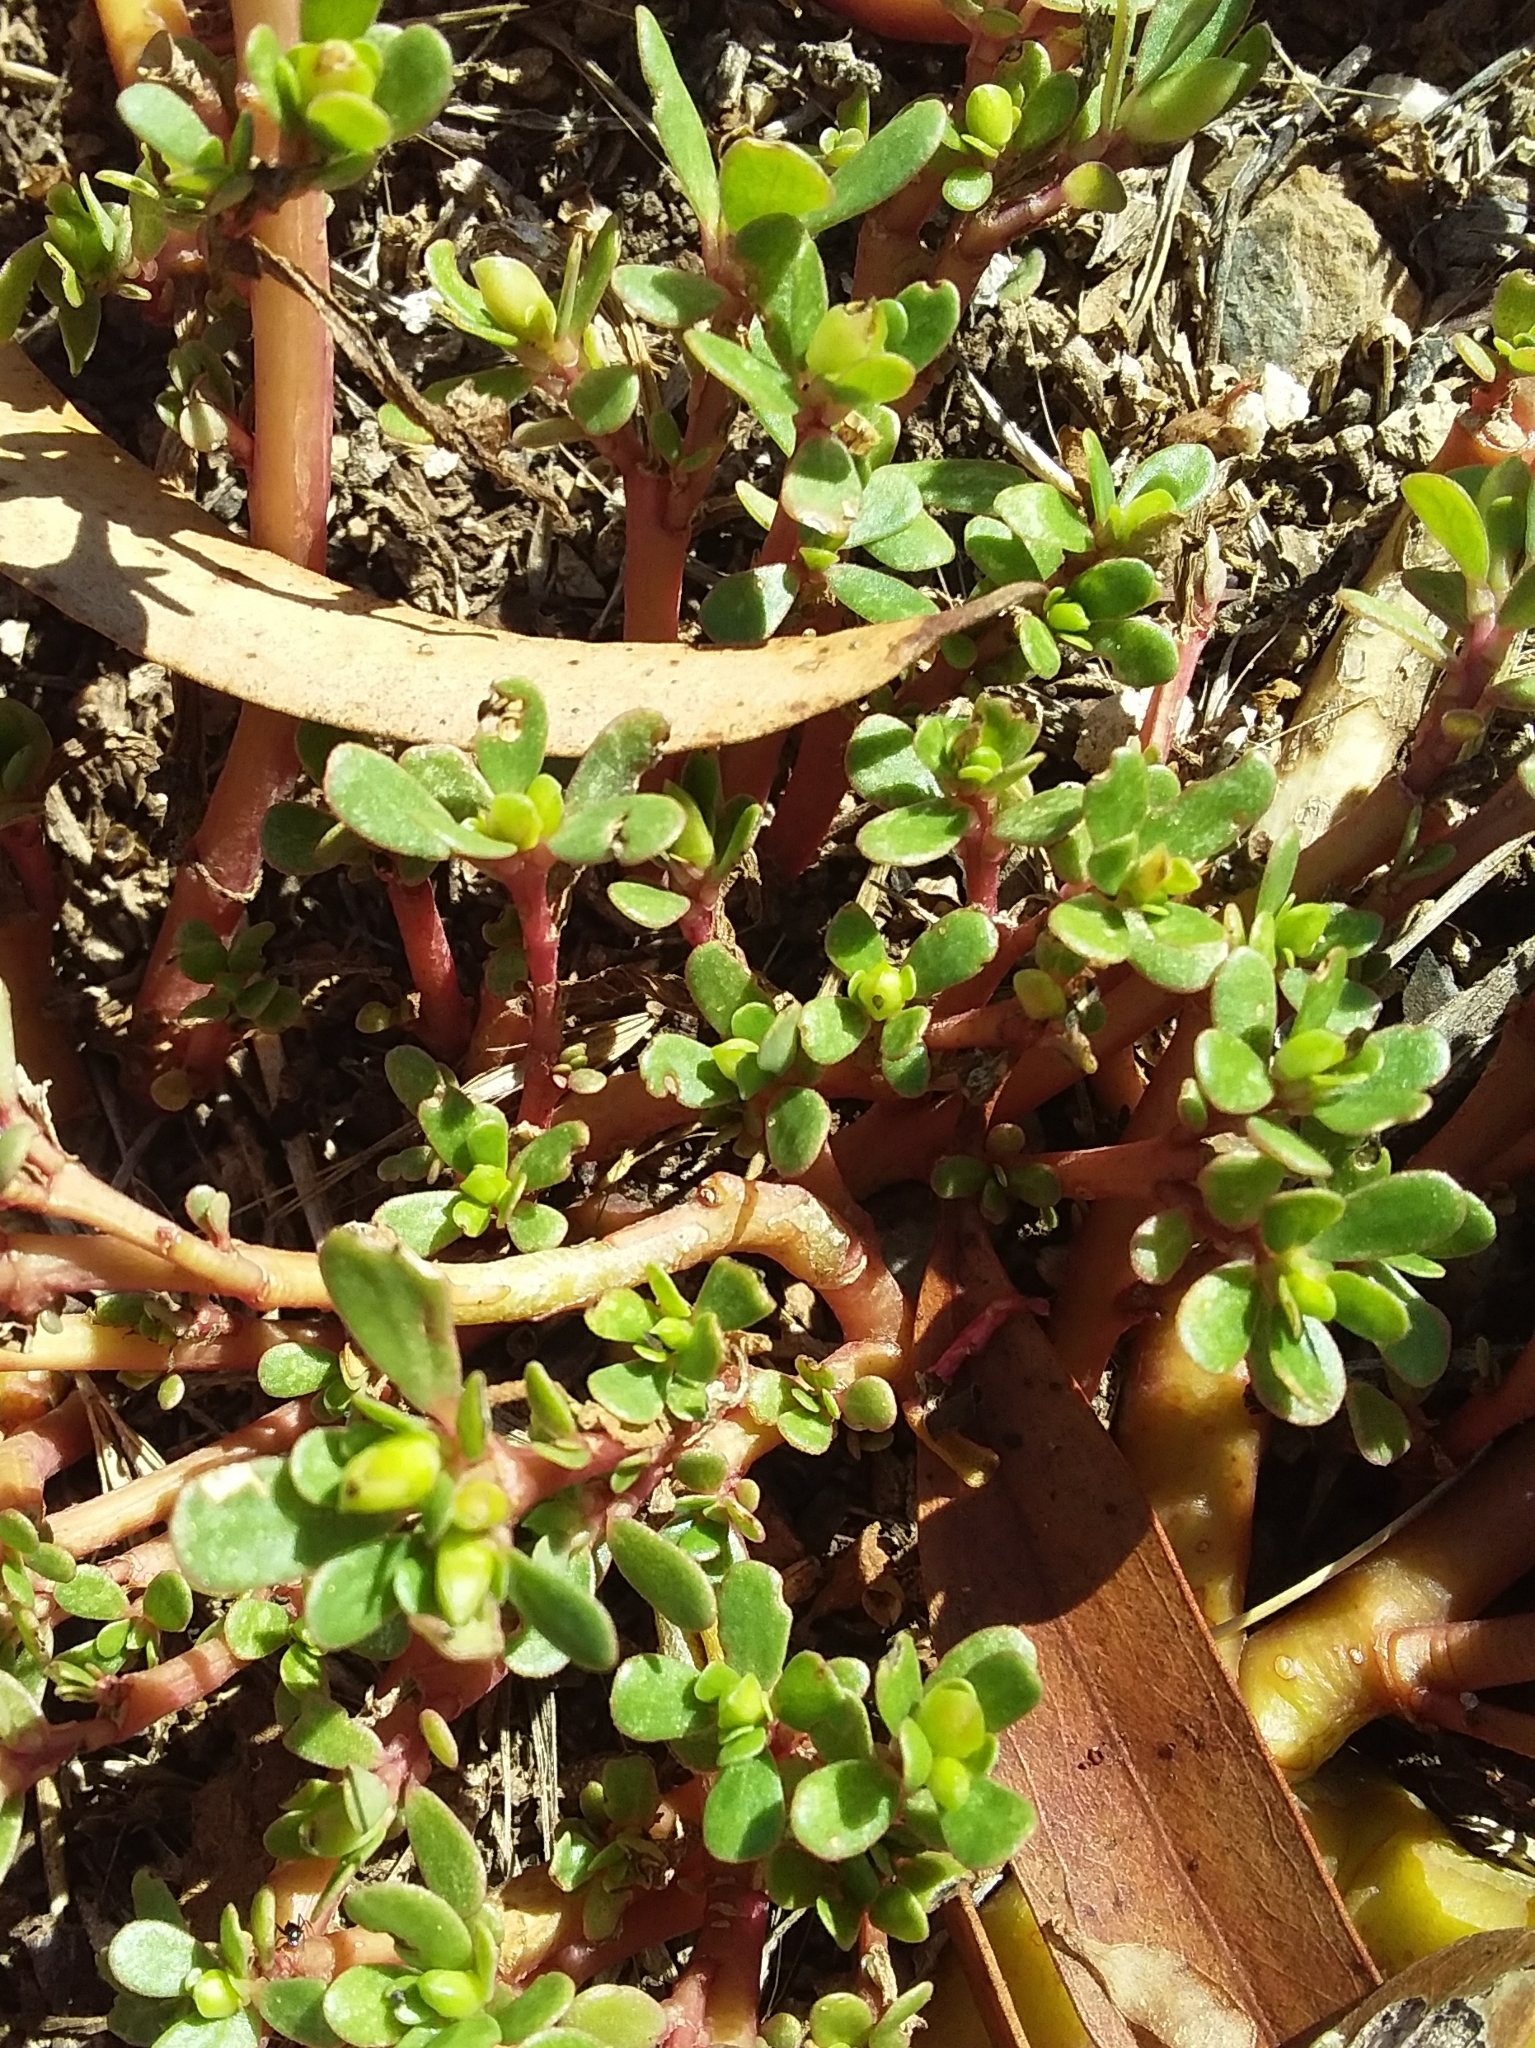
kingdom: Plantae
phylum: Tracheophyta
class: Magnoliopsida
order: Caryophyllales
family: Portulacaceae
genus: Portulaca
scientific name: Portulaca oleracea
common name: Common purslane
